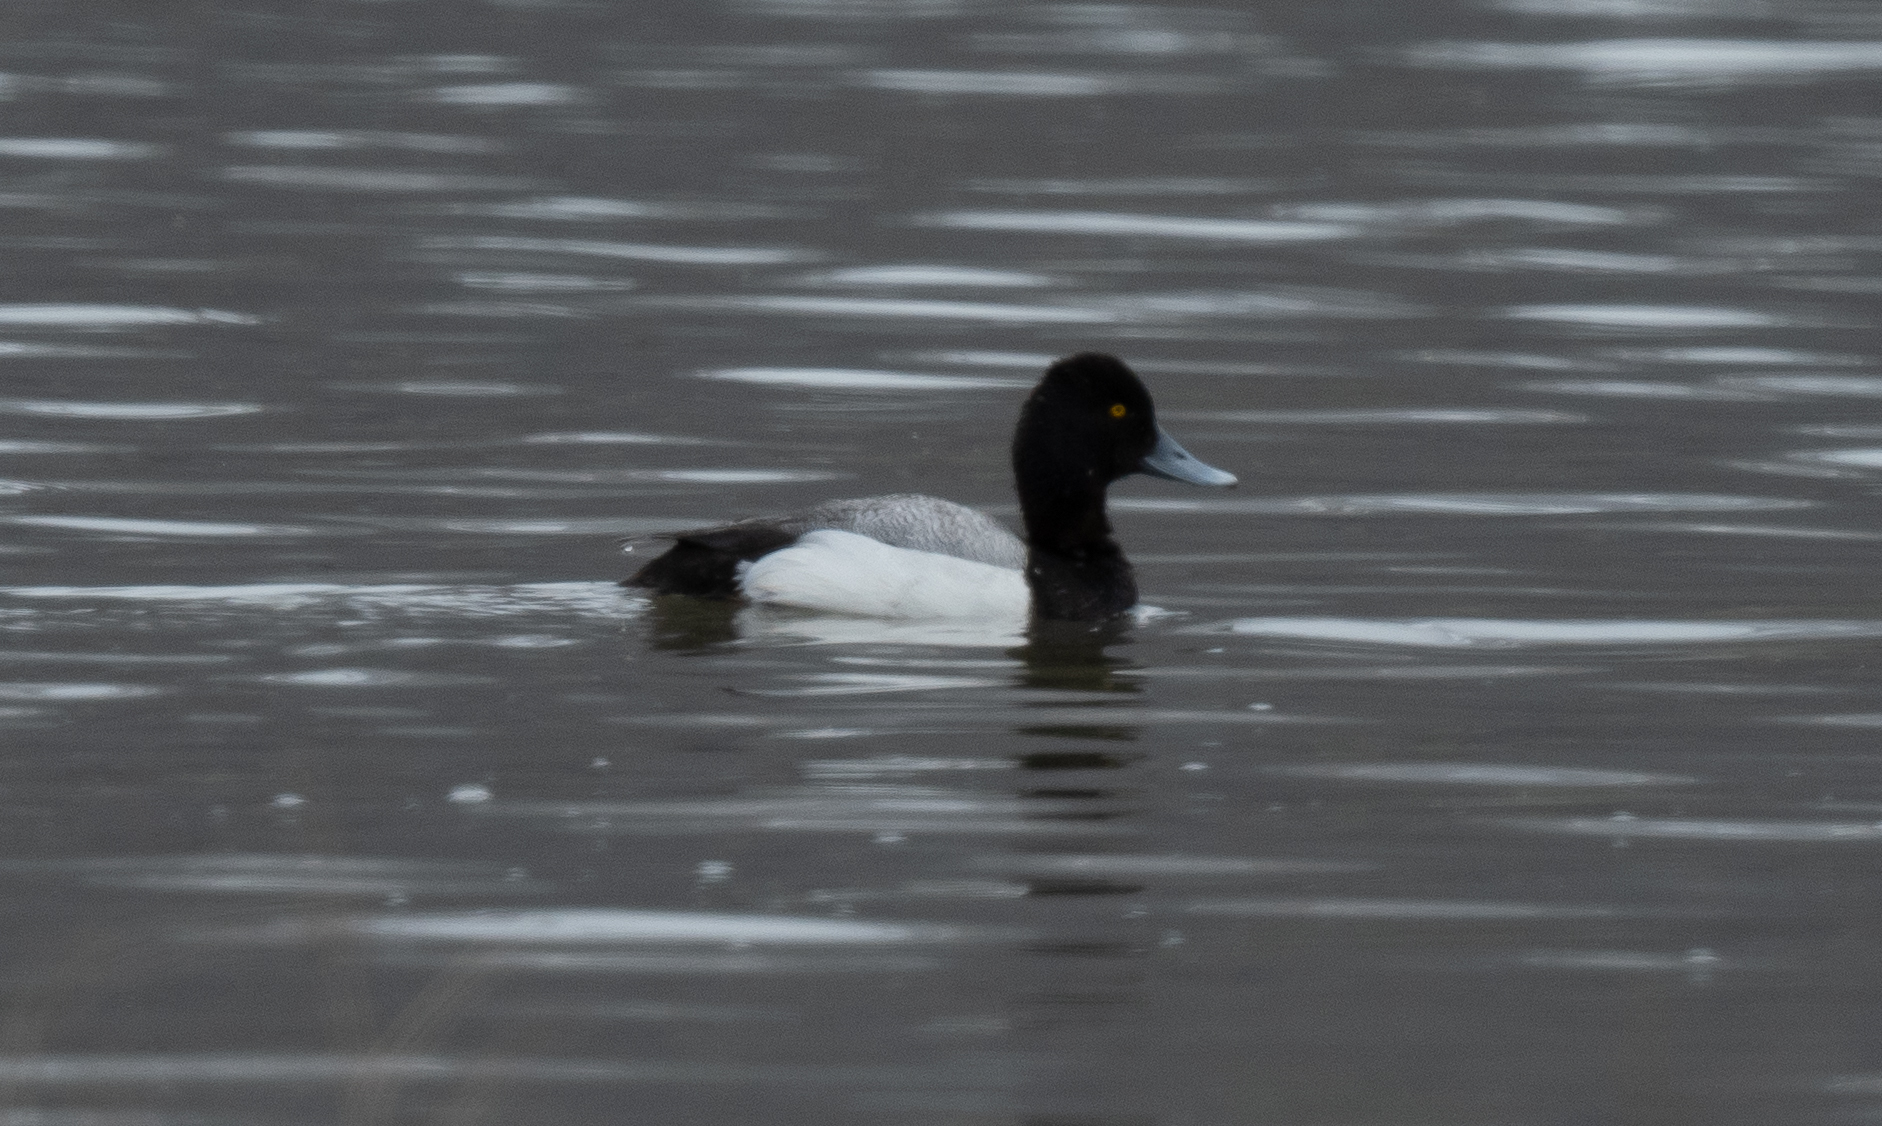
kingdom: Animalia
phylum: Chordata
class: Aves
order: Anseriformes
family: Anatidae
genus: Aythya
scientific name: Aythya affinis
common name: Lesser scaup
